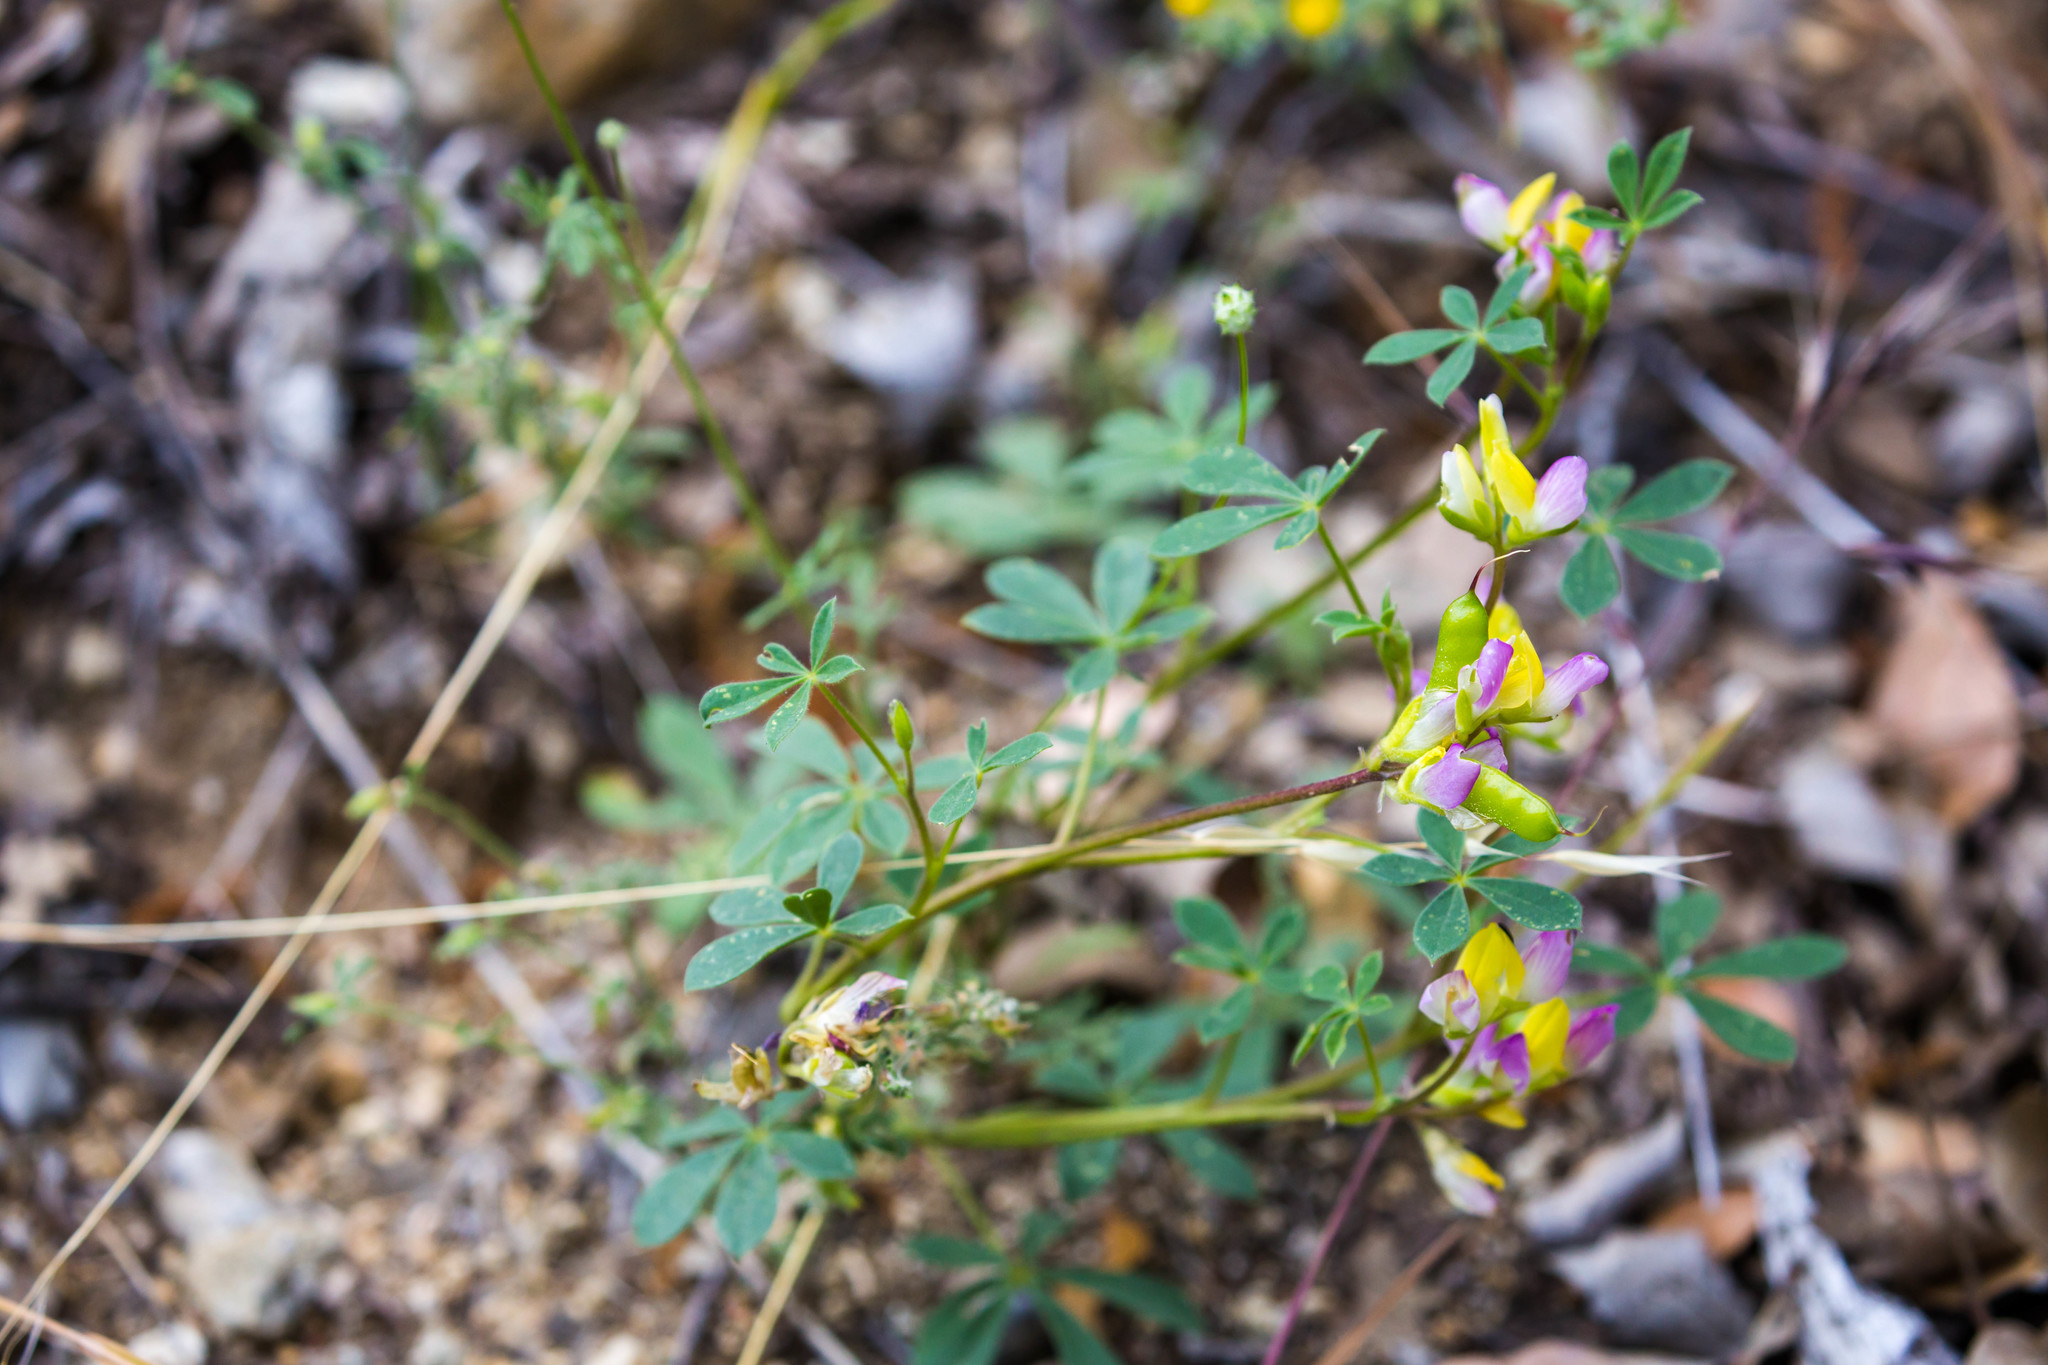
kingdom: Plantae
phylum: Tracheophyta
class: Magnoliopsida
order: Fabales
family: Fabaceae
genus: Lupinus
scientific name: Lupinus stiversii
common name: Harlequin lupine
